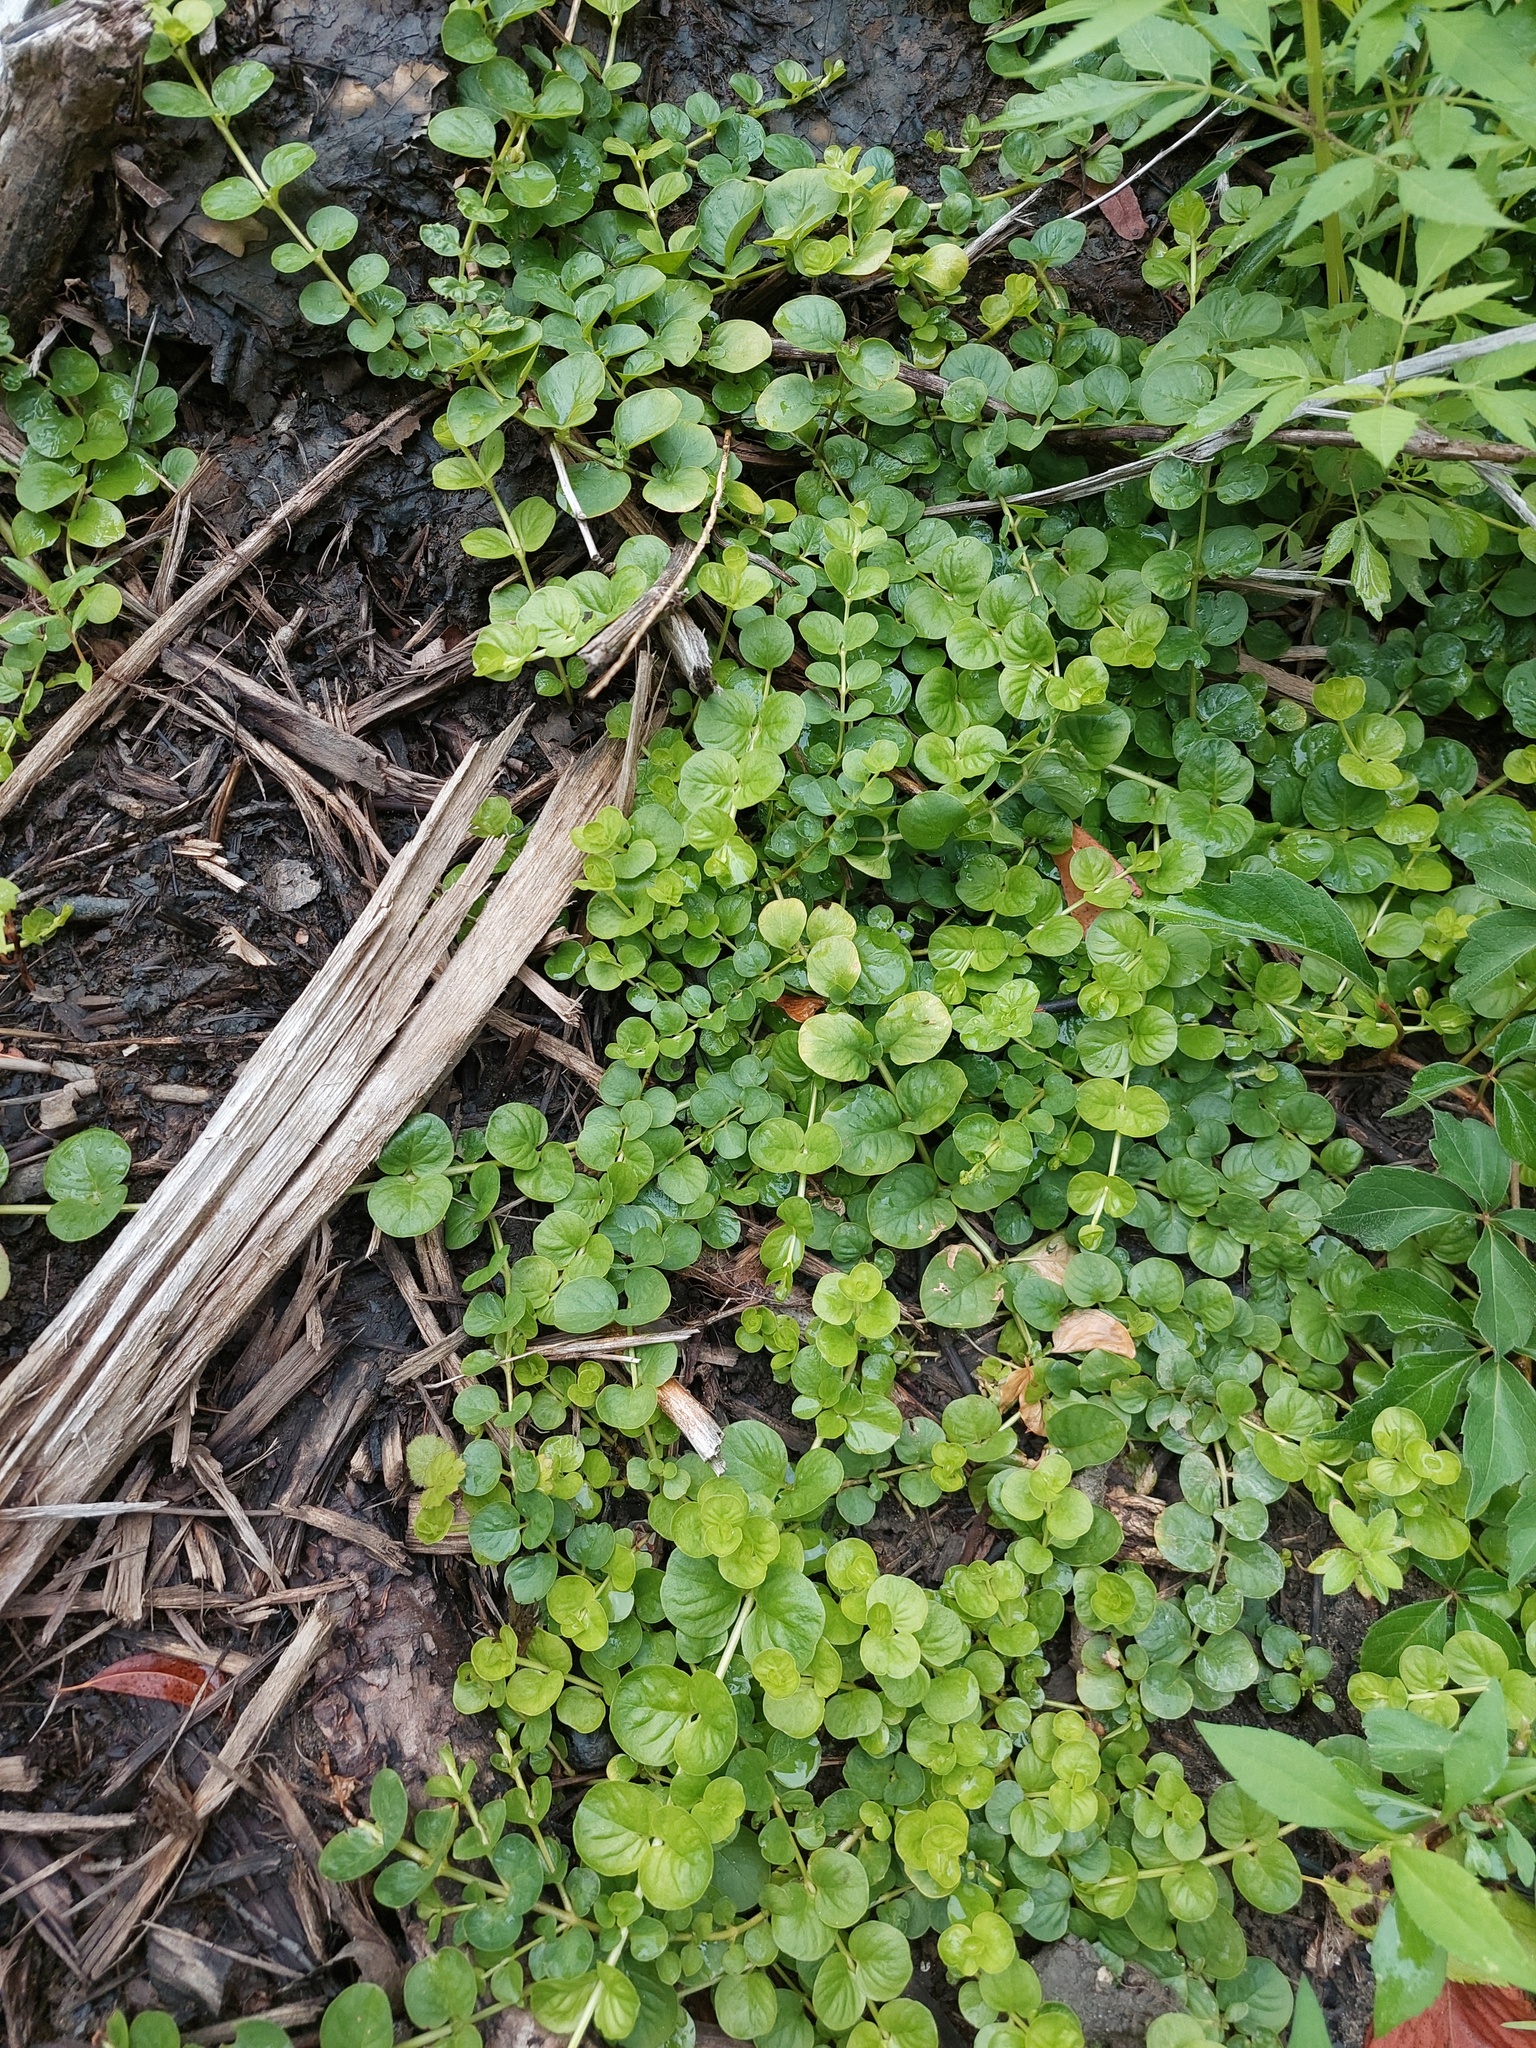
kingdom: Plantae
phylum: Tracheophyta
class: Magnoliopsida
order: Ericales
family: Primulaceae
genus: Lysimachia
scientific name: Lysimachia nummularia
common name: Moneywort
